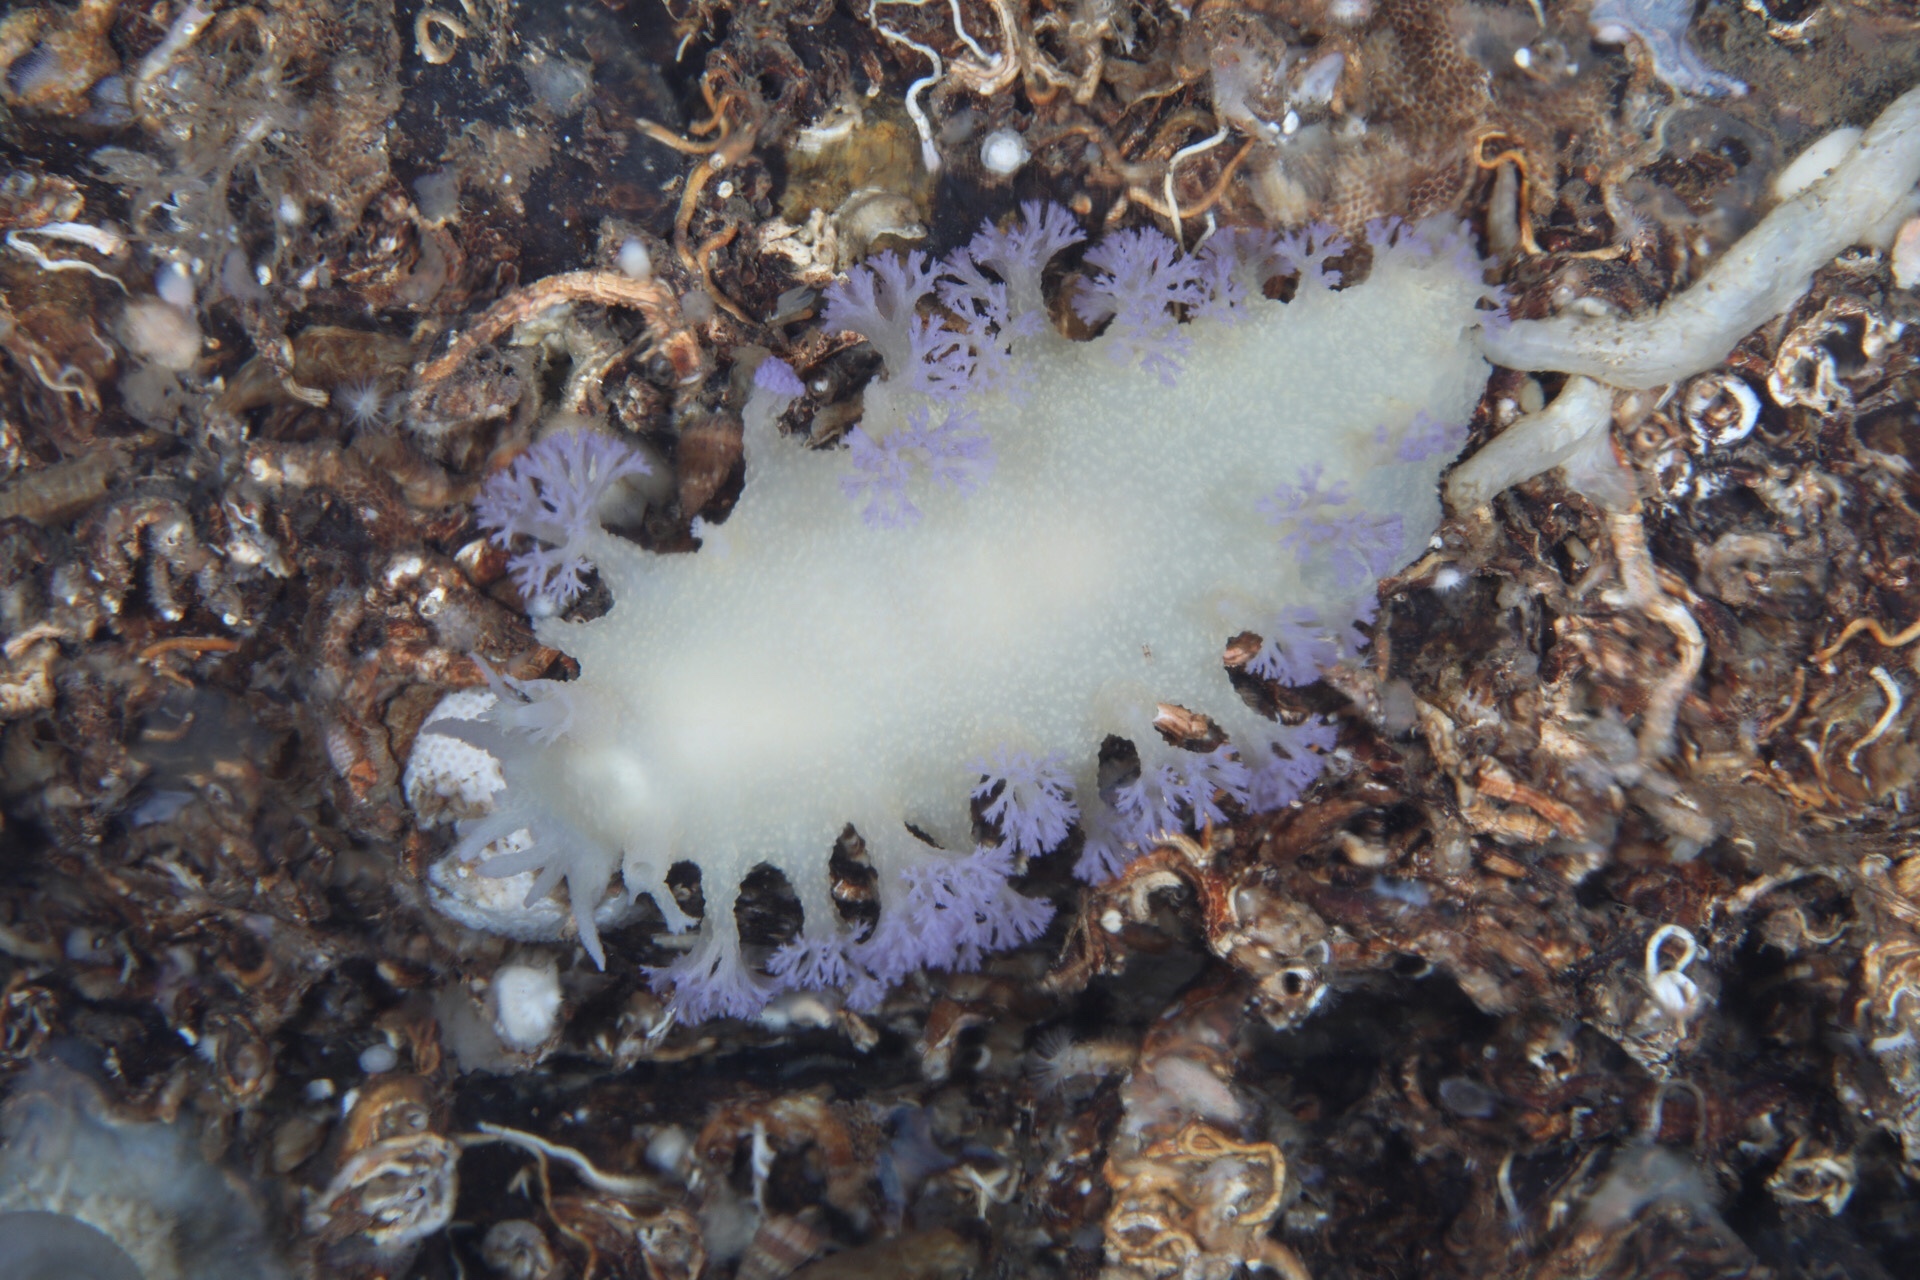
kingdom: Animalia
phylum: Mollusca
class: Gastropoda
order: Nudibranchia
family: Tritoniidae
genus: Tritonia
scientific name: Tritonia griegi
